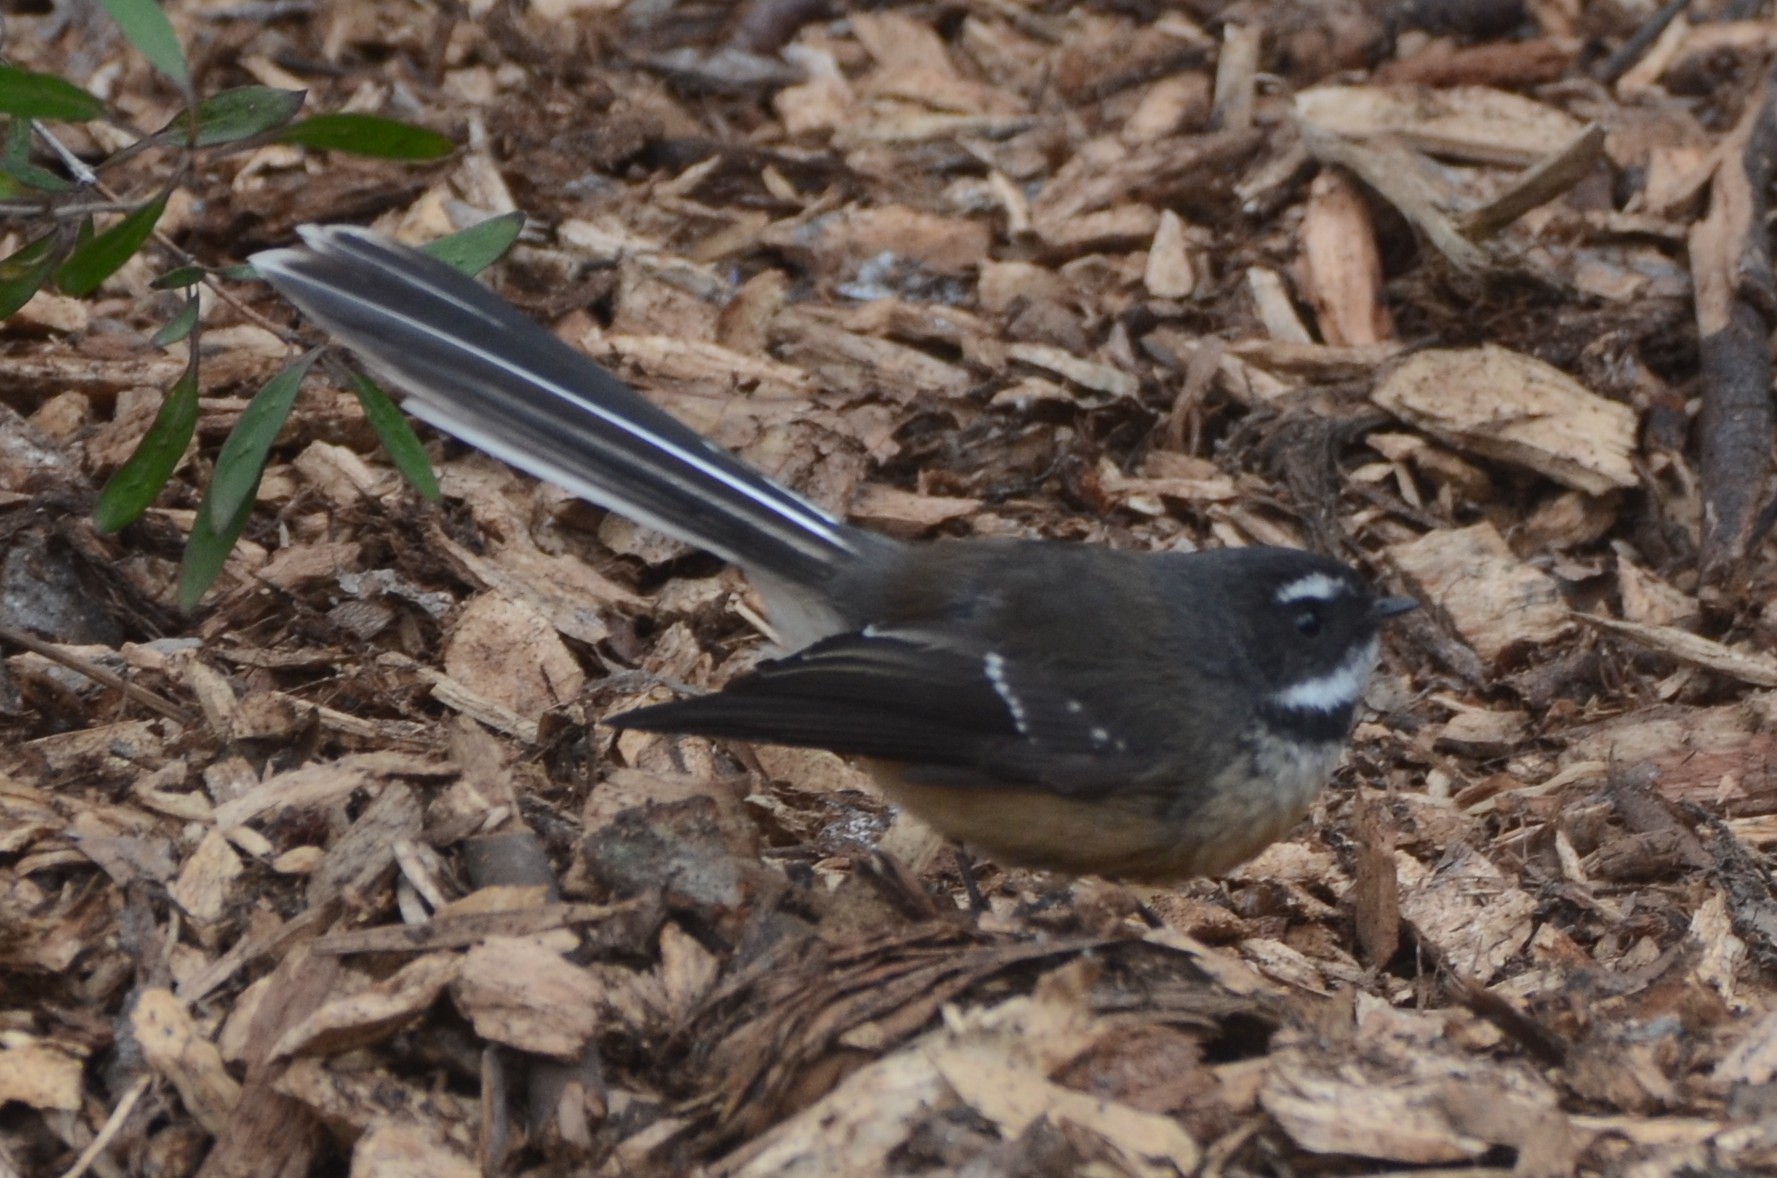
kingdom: Animalia
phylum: Chordata
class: Aves
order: Passeriformes
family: Rhipiduridae
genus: Rhipidura
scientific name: Rhipidura fuliginosa
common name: New zealand fantail
